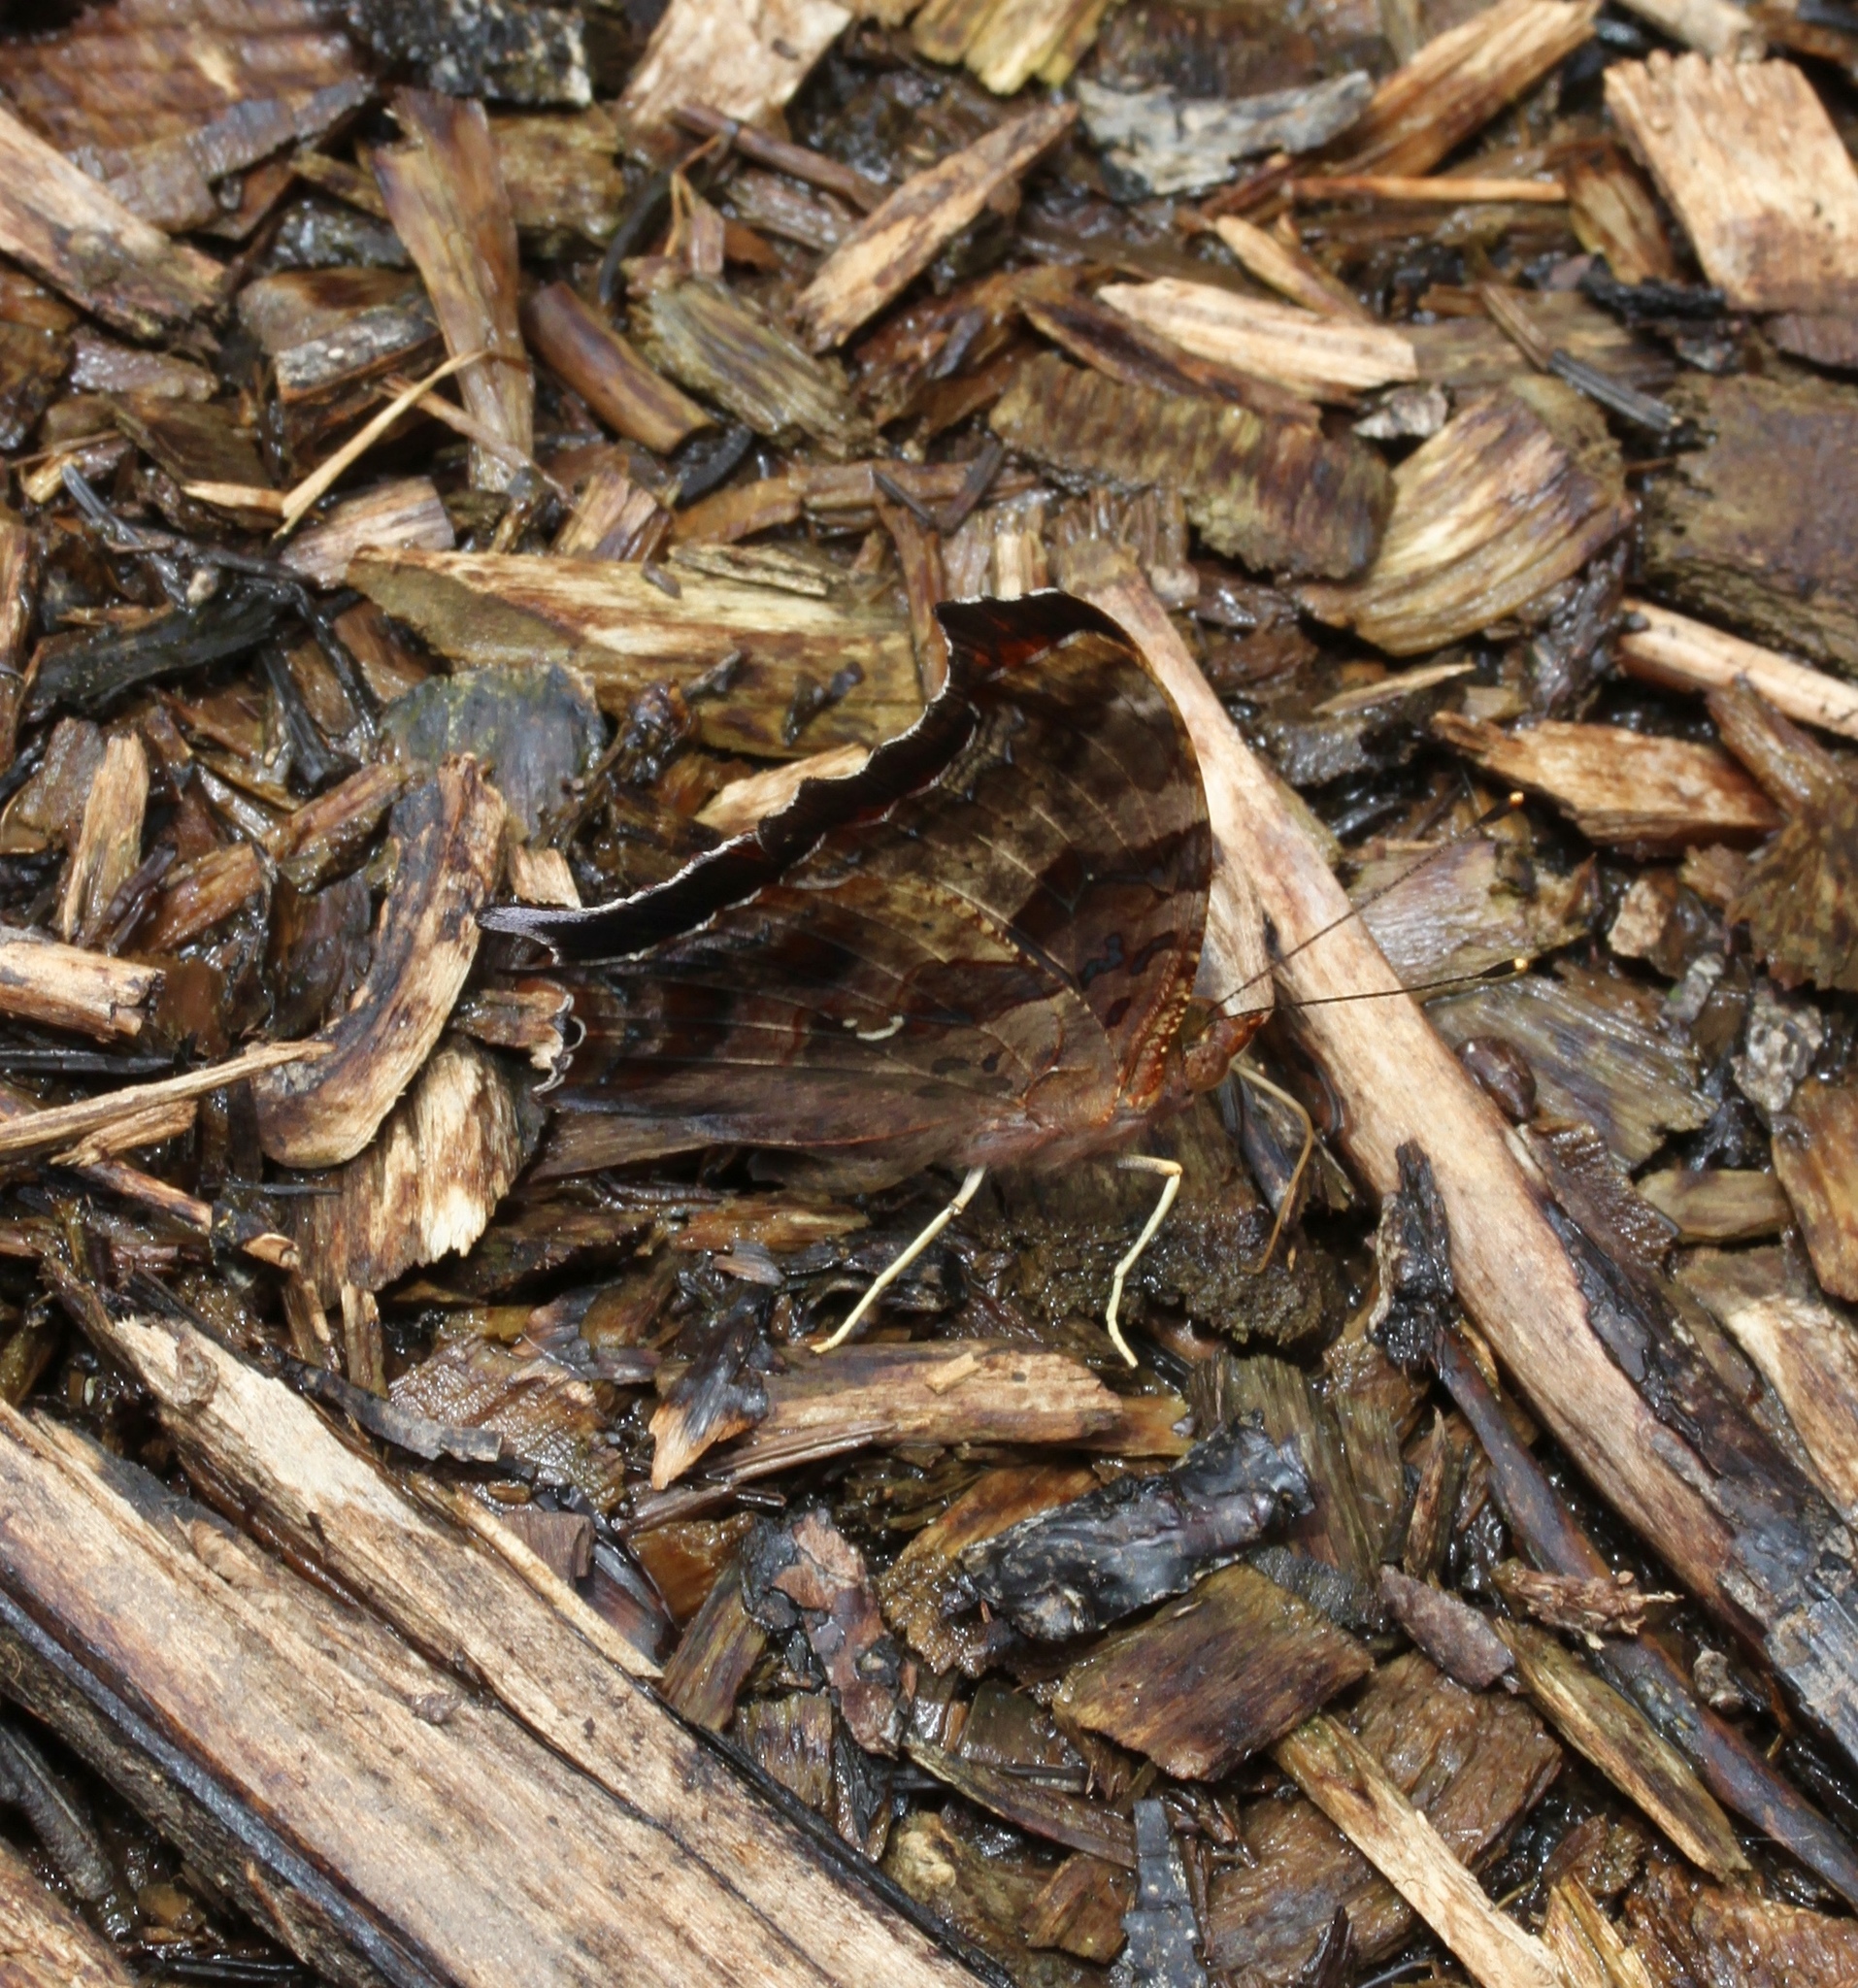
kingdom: Animalia
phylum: Arthropoda
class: Insecta
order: Lepidoptera
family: Nymphalidae
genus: Polygonia
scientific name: Polygonia interrogationis
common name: Question mark
